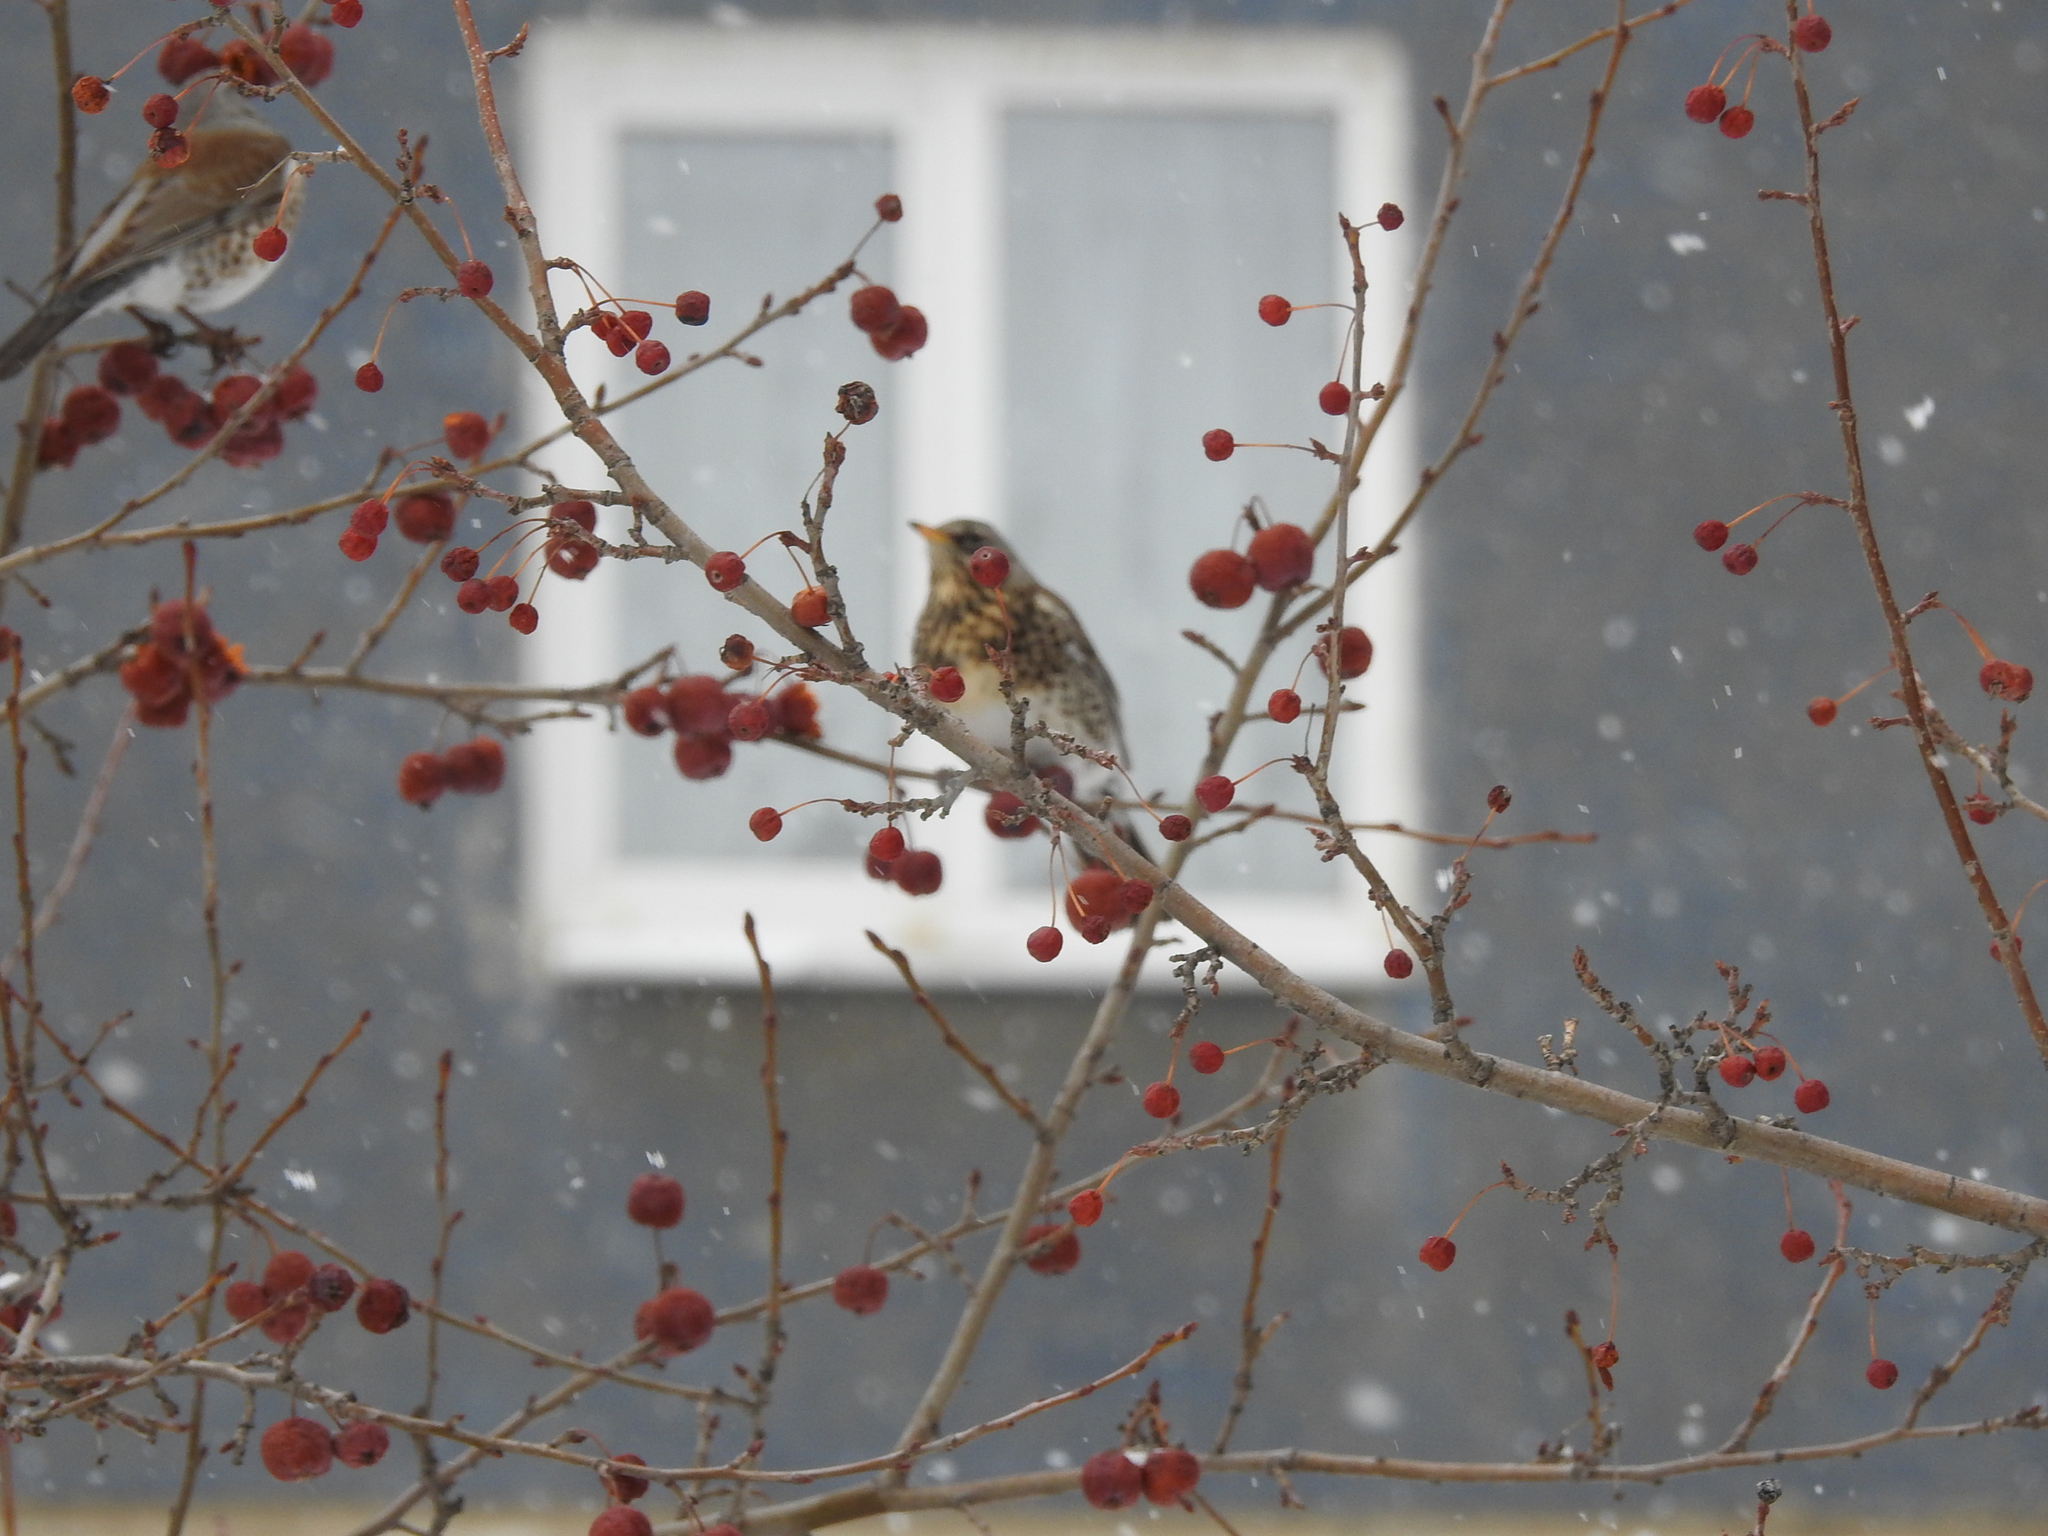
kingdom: Animalia
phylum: Chordata
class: Aves
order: Passeriformes
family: Turdidae
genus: Turdus
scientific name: Turdus pilaris
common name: Fieldfare
